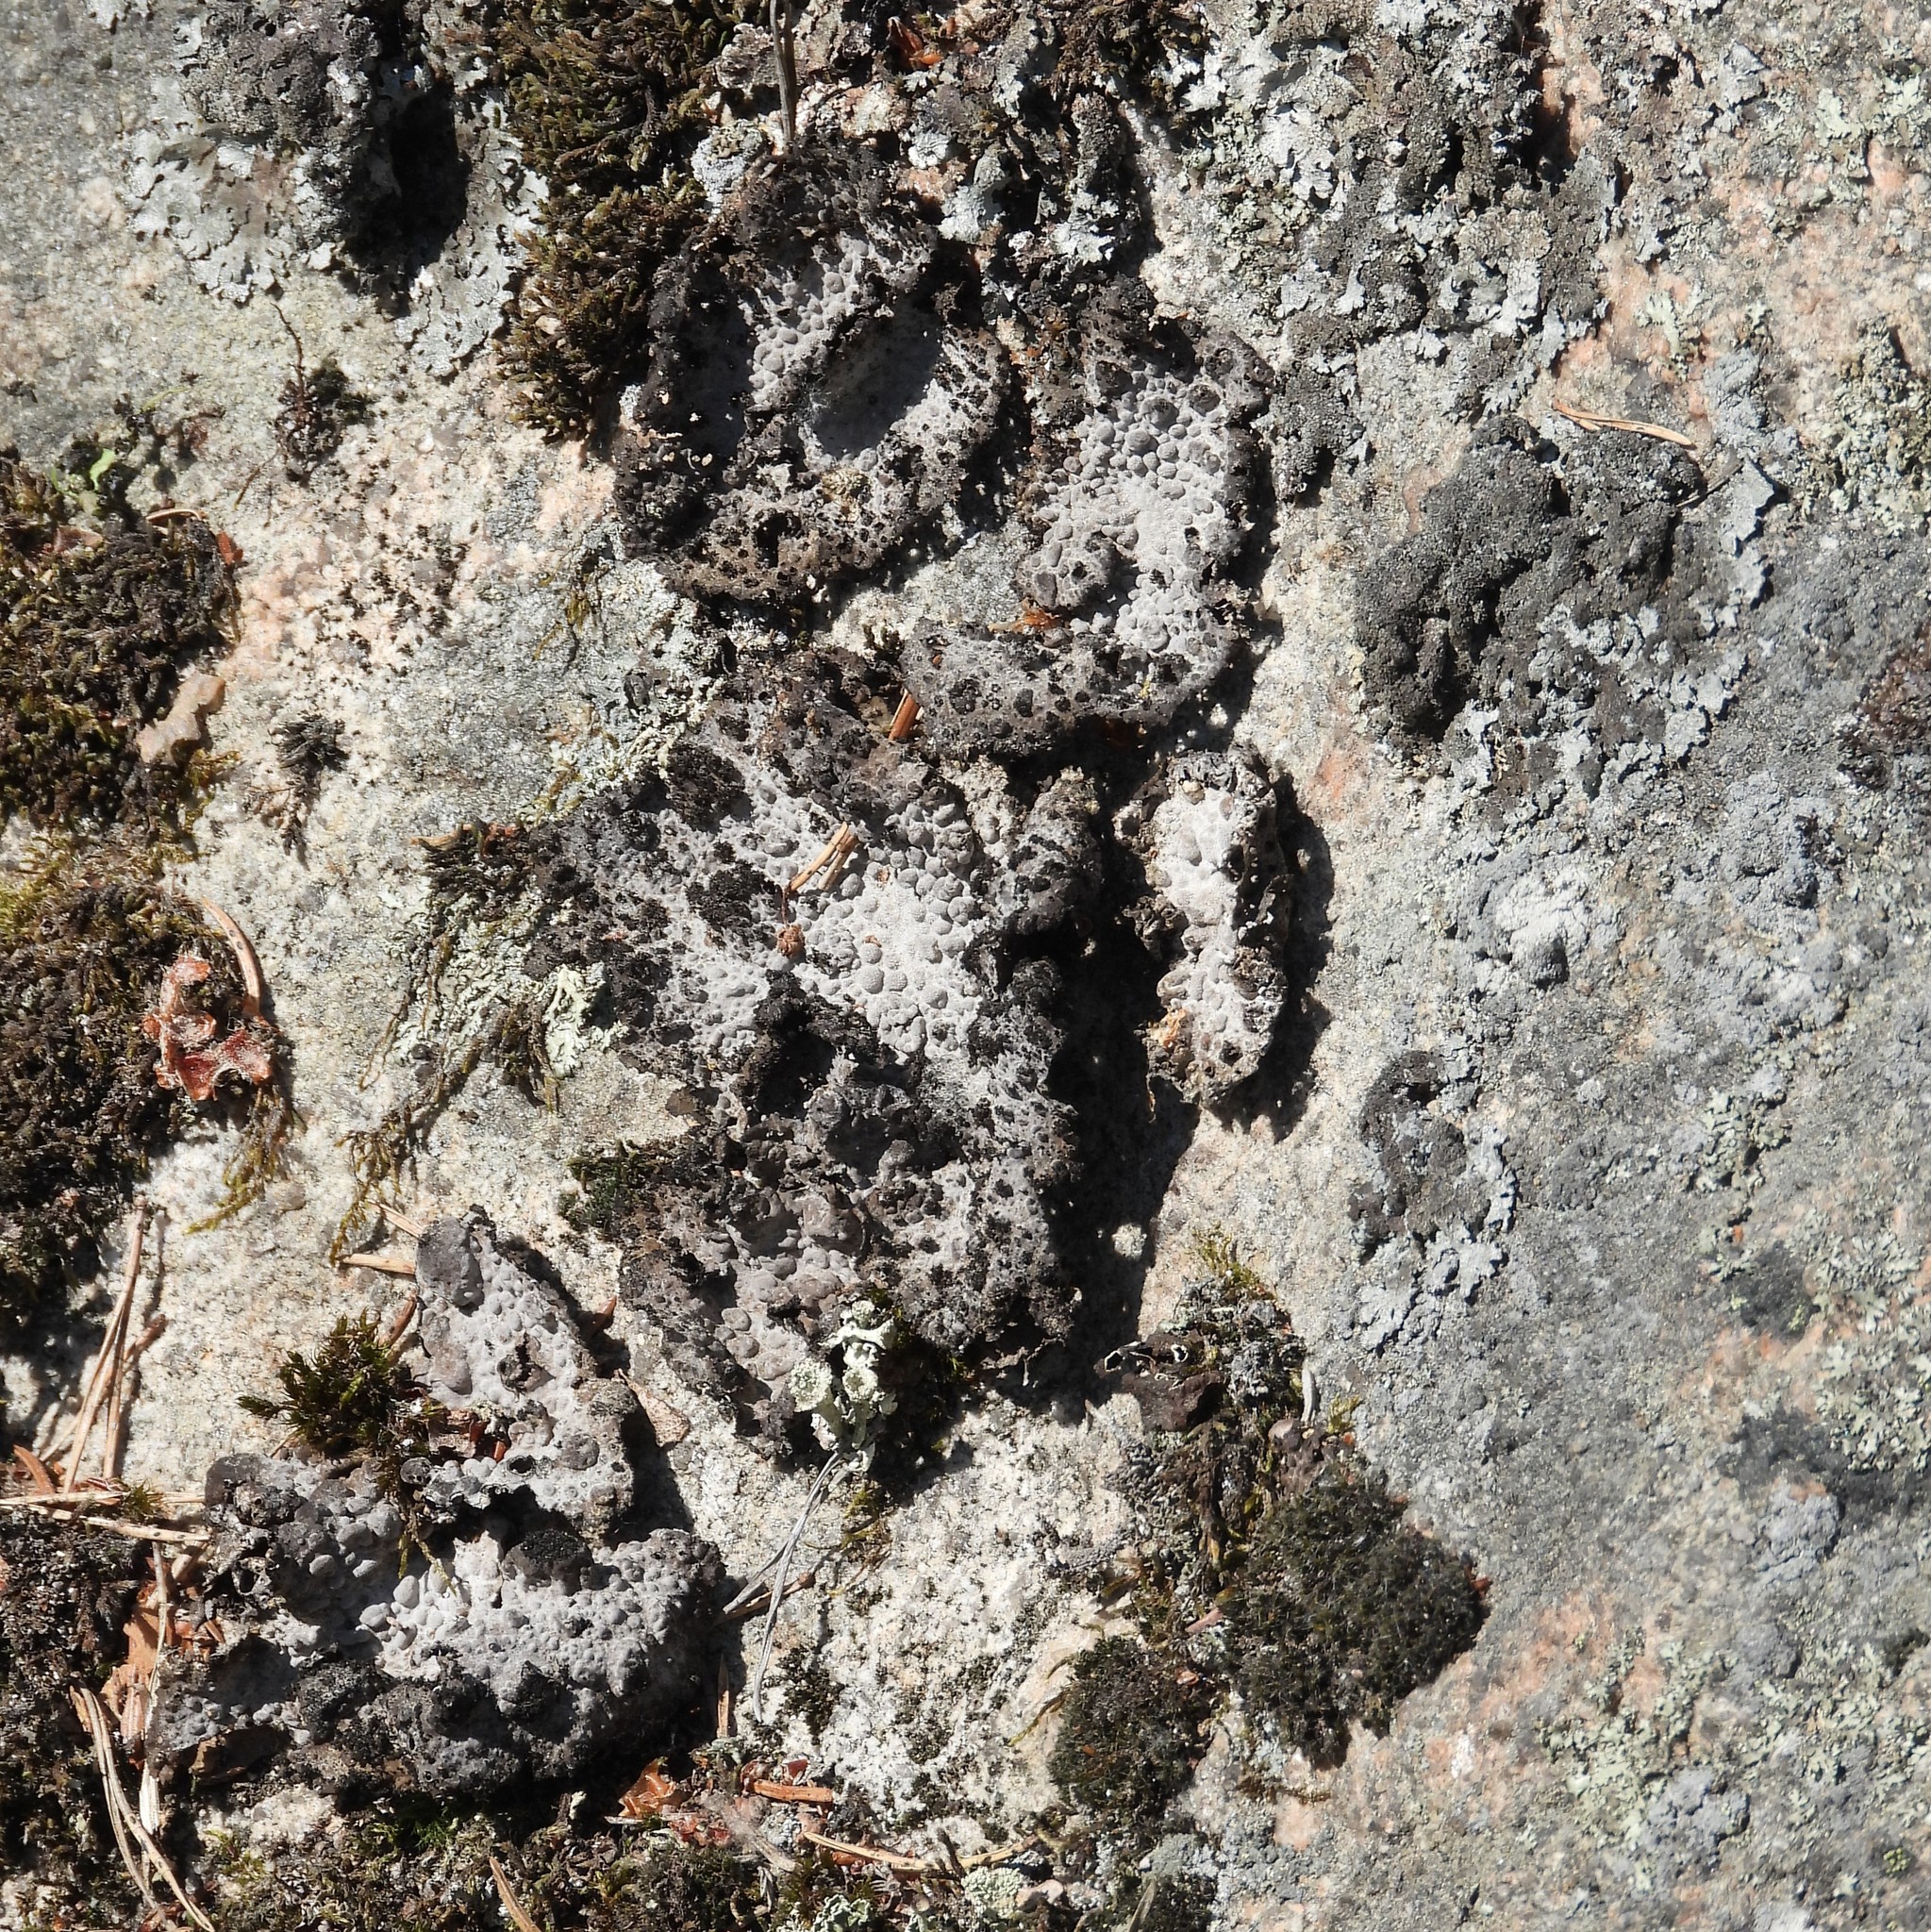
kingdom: Fungi
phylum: Ascomycota
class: Lecanoromycetes
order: Umbilicariales
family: Umbilicariaceae
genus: Lasallia
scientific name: Lasallia pustulata
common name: Blistered toadskin lichen
